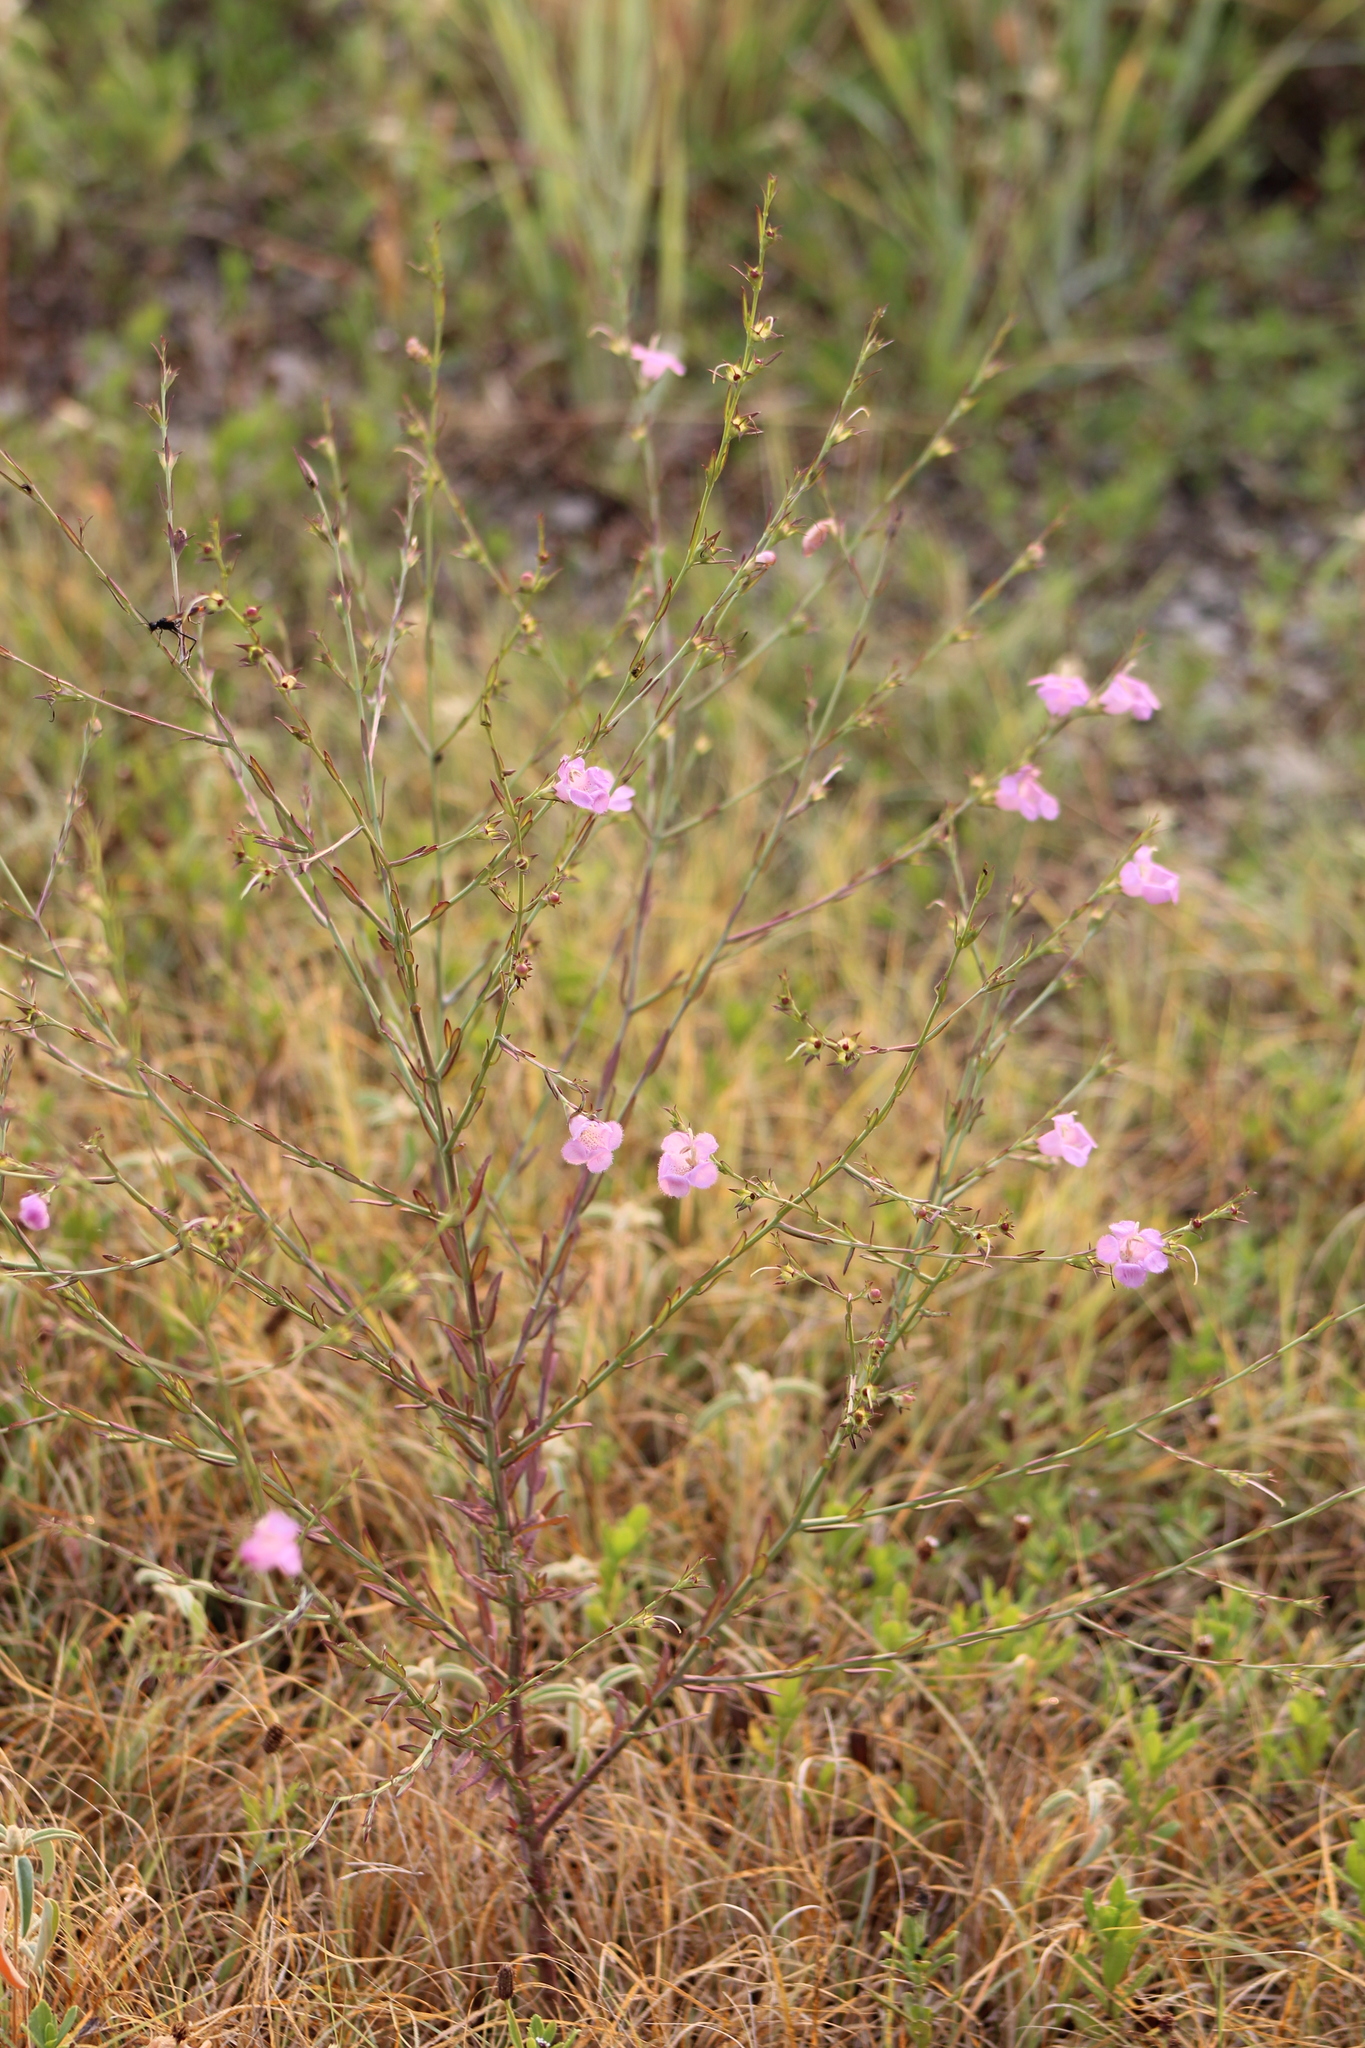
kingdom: Plantae
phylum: Tracheophyta
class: Magnoliopsida
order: Lamiales
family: Orobanchaceae
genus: Agalinis
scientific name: Agalinis heterophylla
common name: Prairie agalinis
